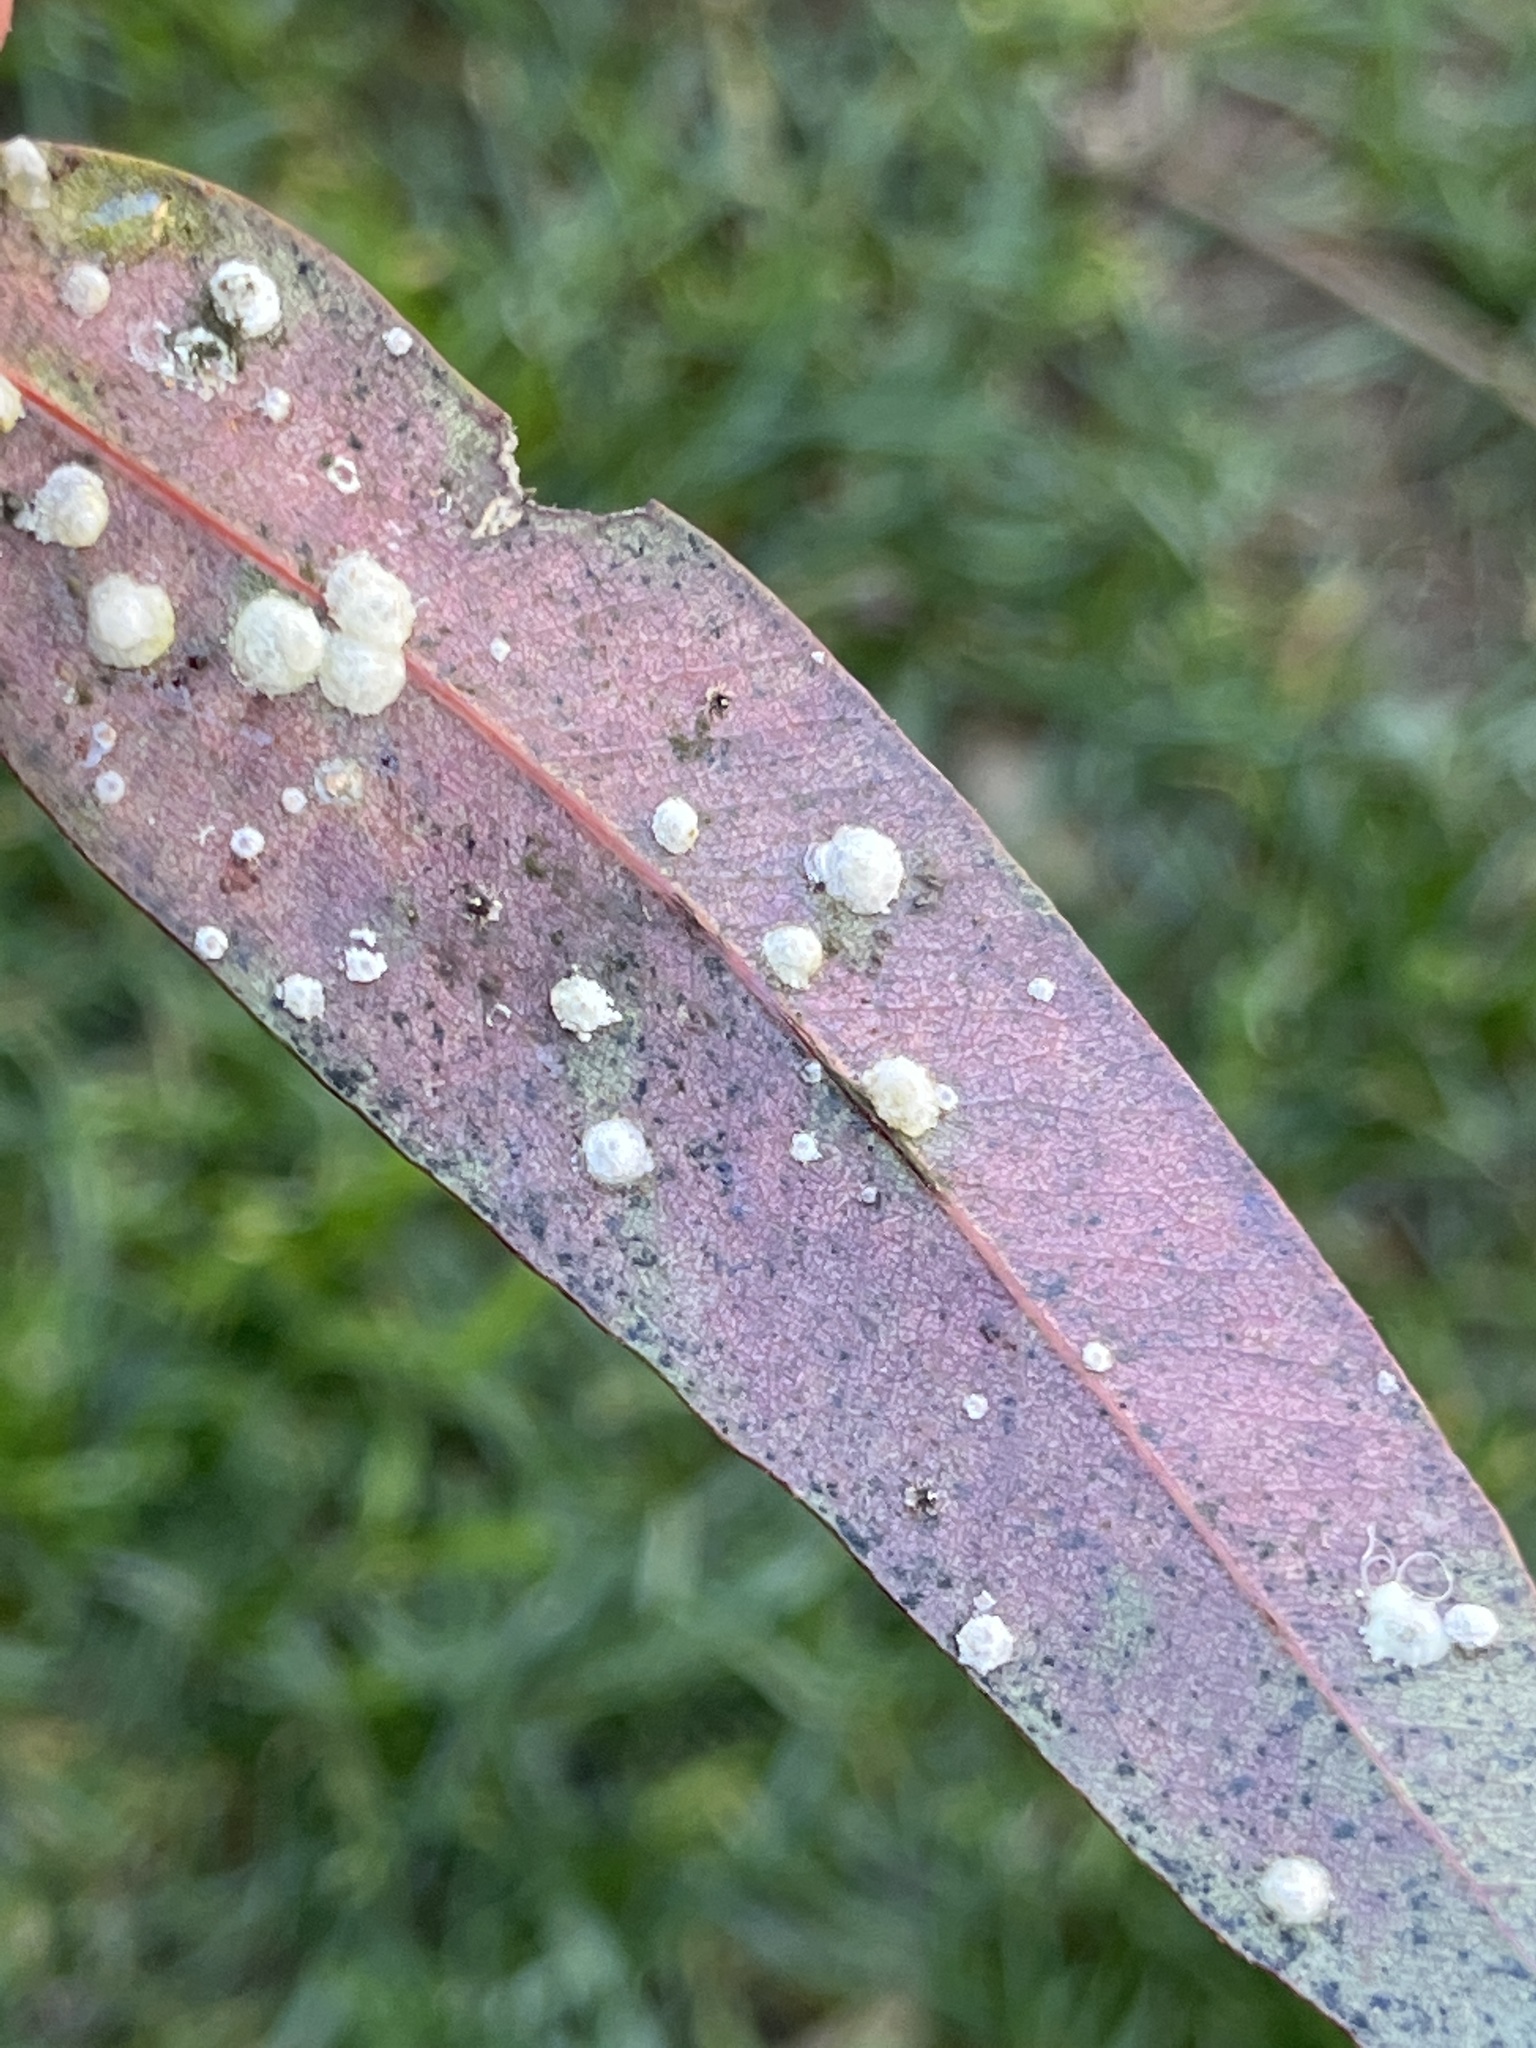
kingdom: Animalia
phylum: Arthropoda
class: Insecta
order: Hemiptera
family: Aphalaridae
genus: Glycaspis
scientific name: Glycaspis brimblecombei
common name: Red gum lerp psyllid
